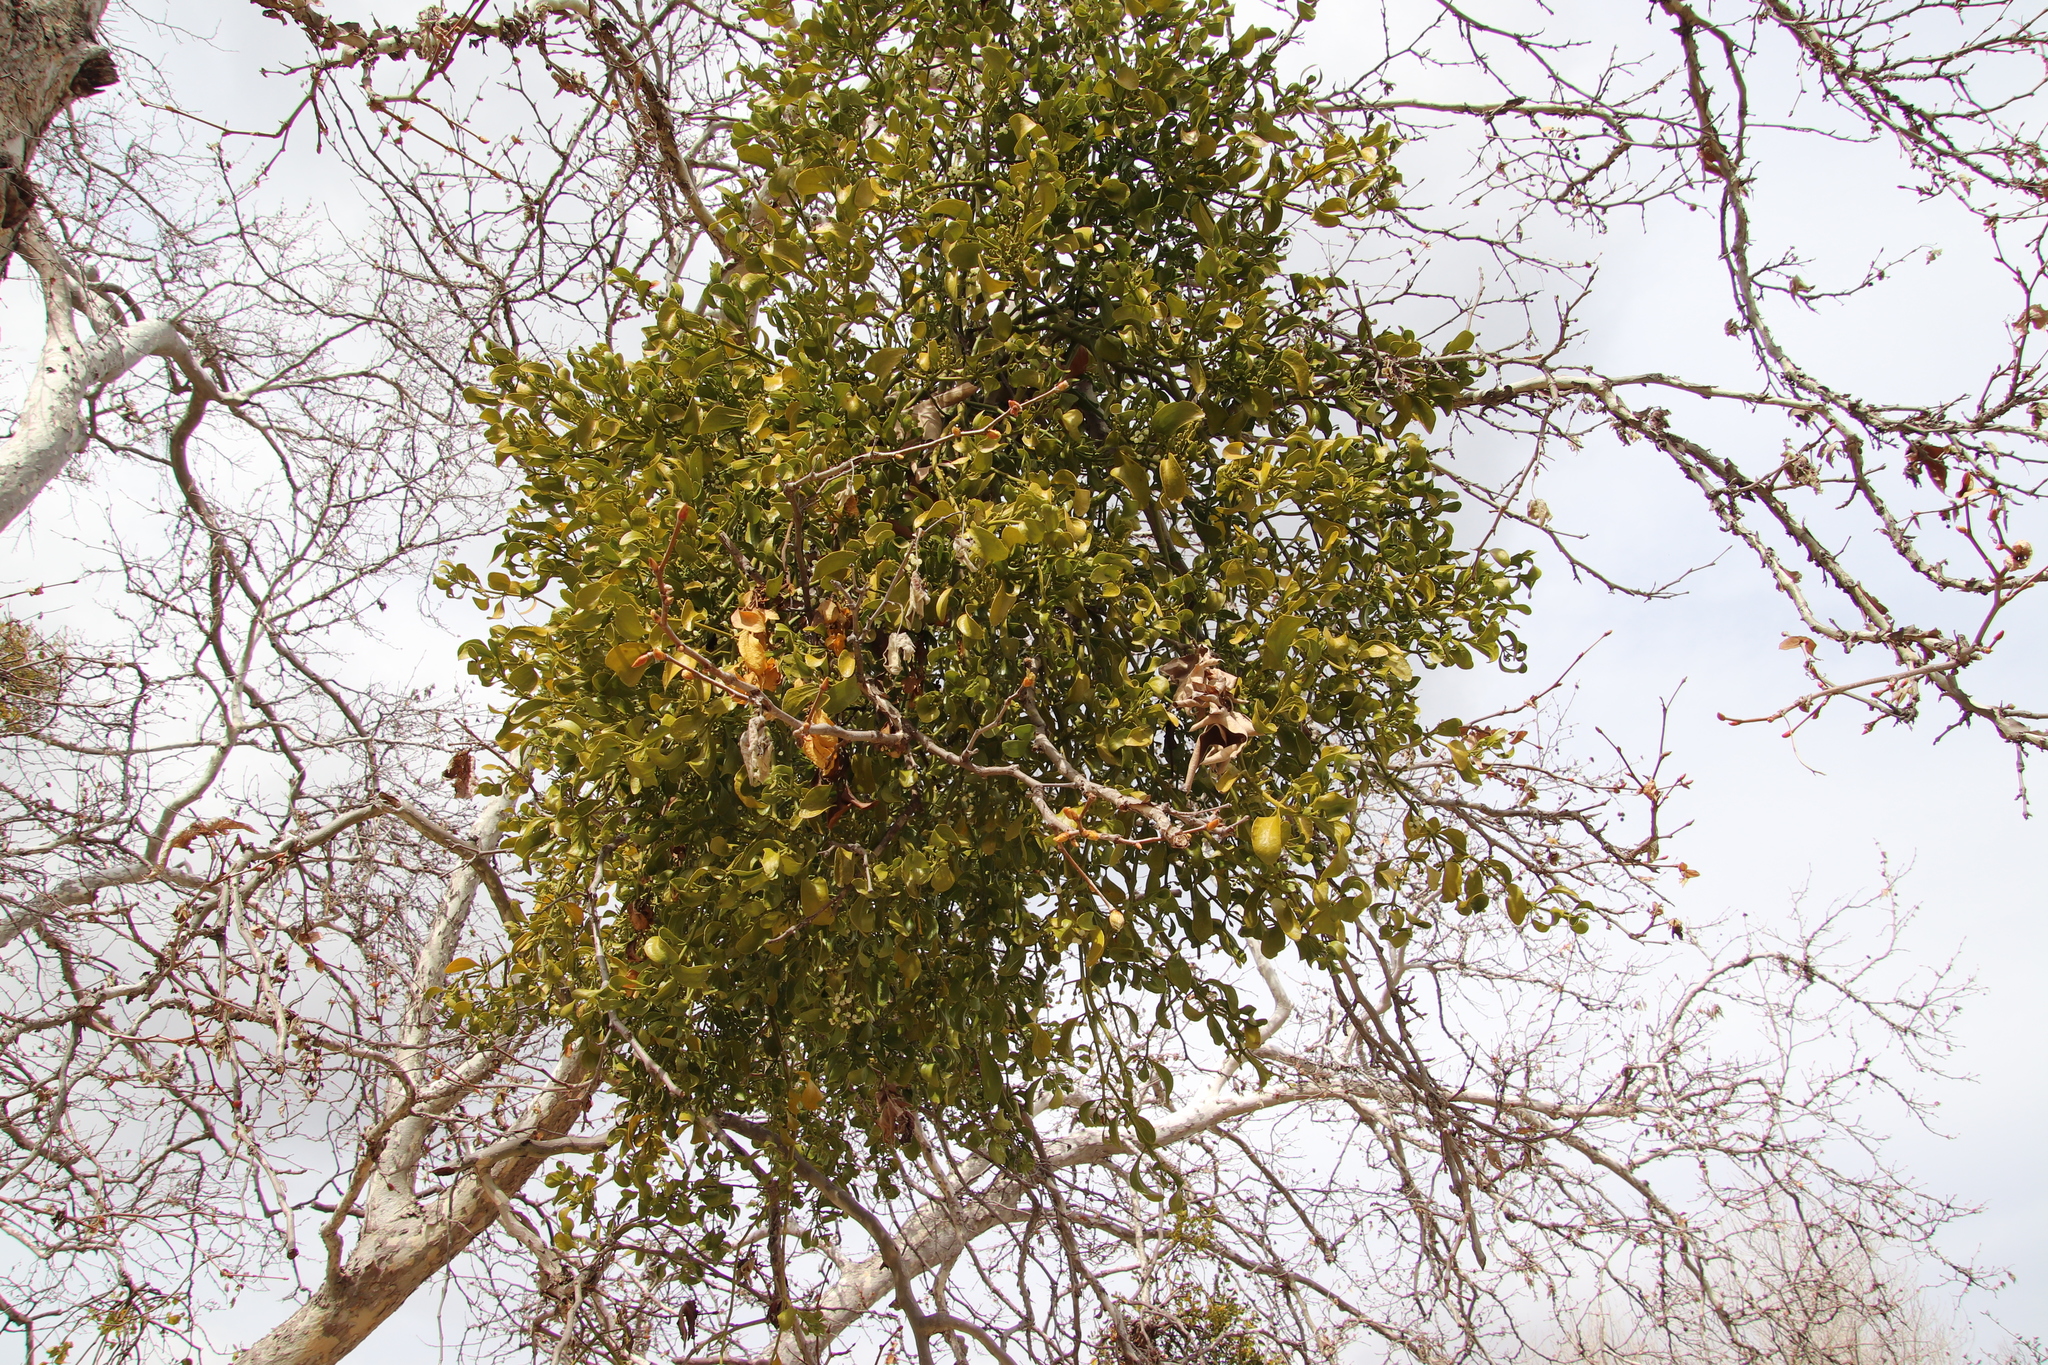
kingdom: Plantae
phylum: Tracheophyta
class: Magnoliopsida
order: Santalales
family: Viscaceae
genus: Phoradendron
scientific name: Phoradendron
